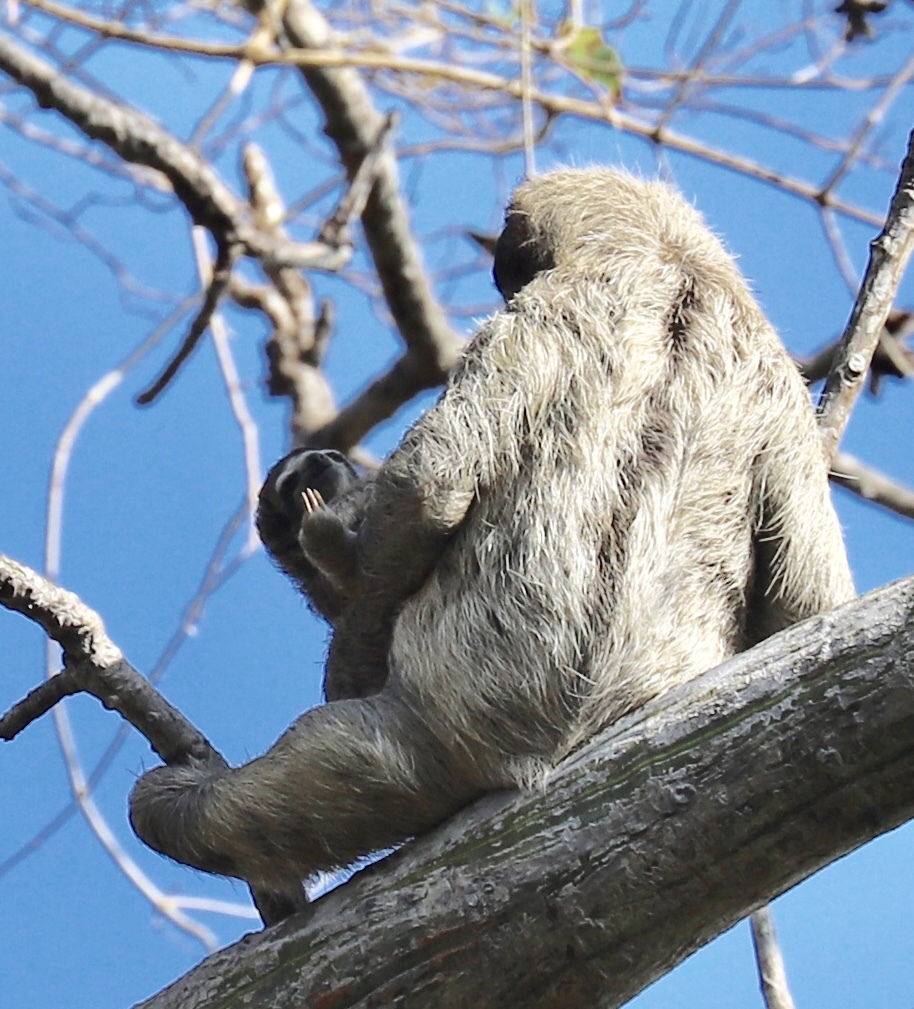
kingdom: Animalia
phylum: Chordata
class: Mammalia
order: Pilosa
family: Bradypodidae
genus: Bradypus
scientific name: Bradypus variegatus
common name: Brown-throated three-toed sloth
